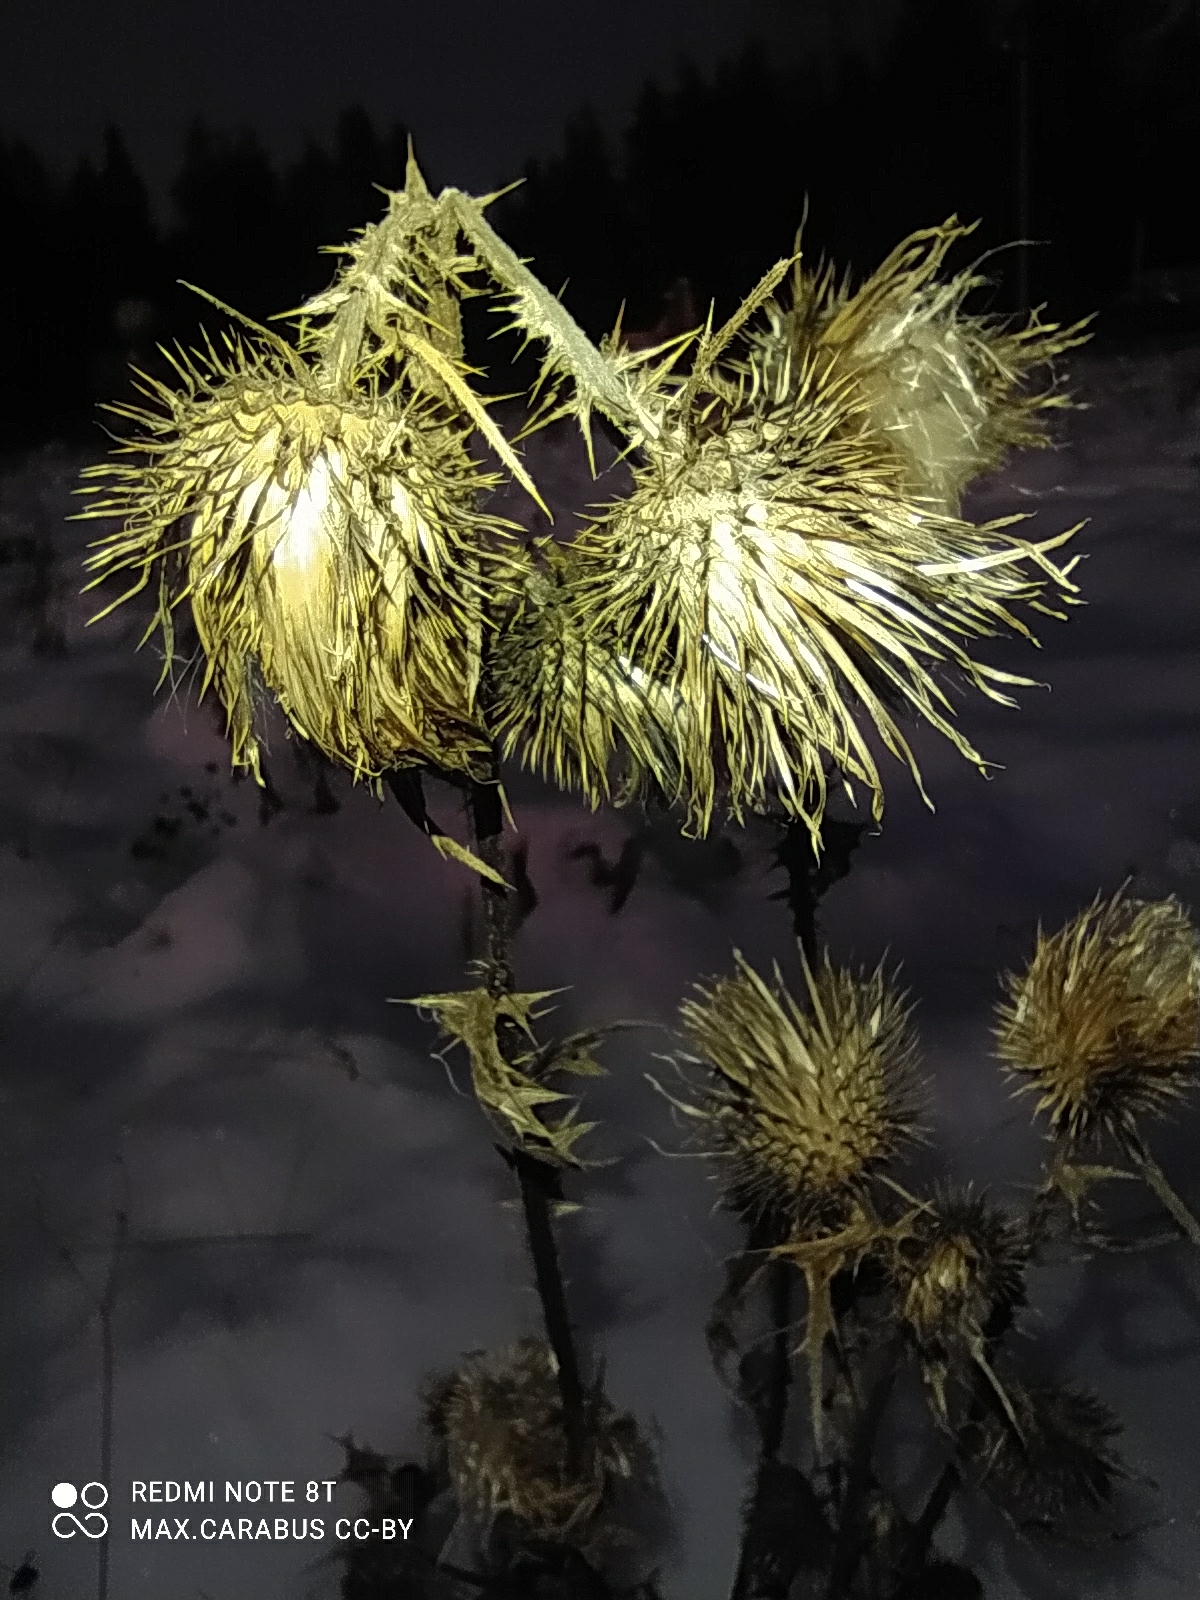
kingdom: Plantae
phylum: Tracheophyta
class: Magnoliopsida
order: Asterales
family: Asteraceae
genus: Cirsium
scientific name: Cirsium vulgare
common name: Bull thistle
